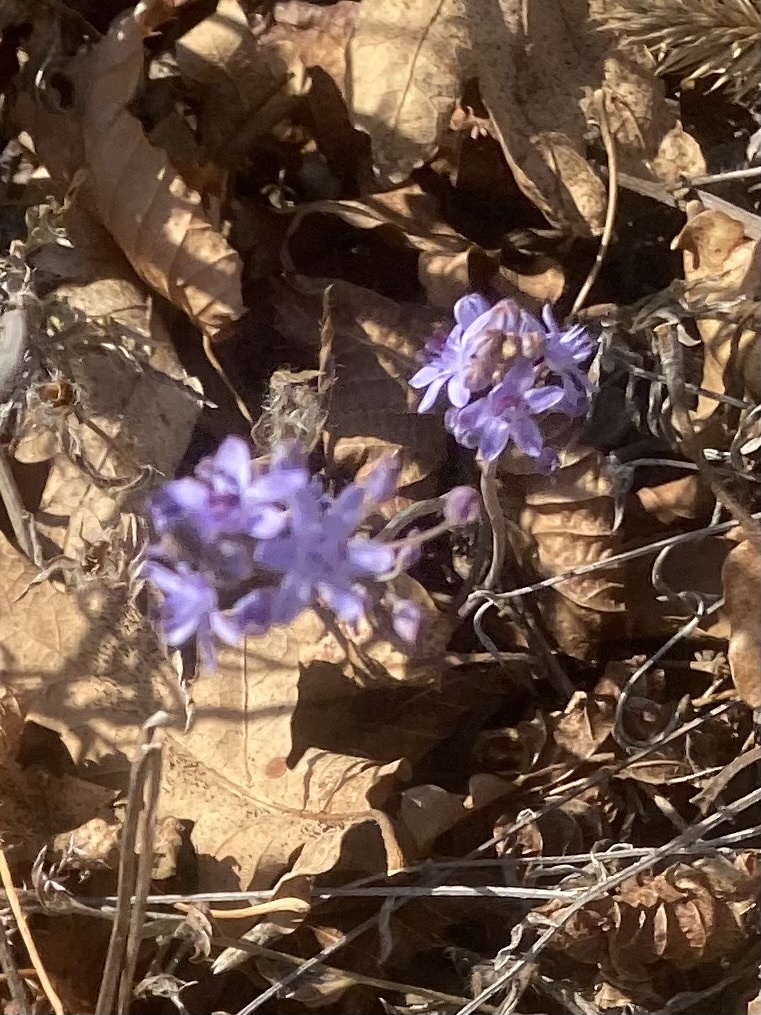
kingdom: Plantae
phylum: Tracheophyta
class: Liliopsida
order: Asparagales
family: Asparagaceae
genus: Prospero
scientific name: Prospero autumnale
